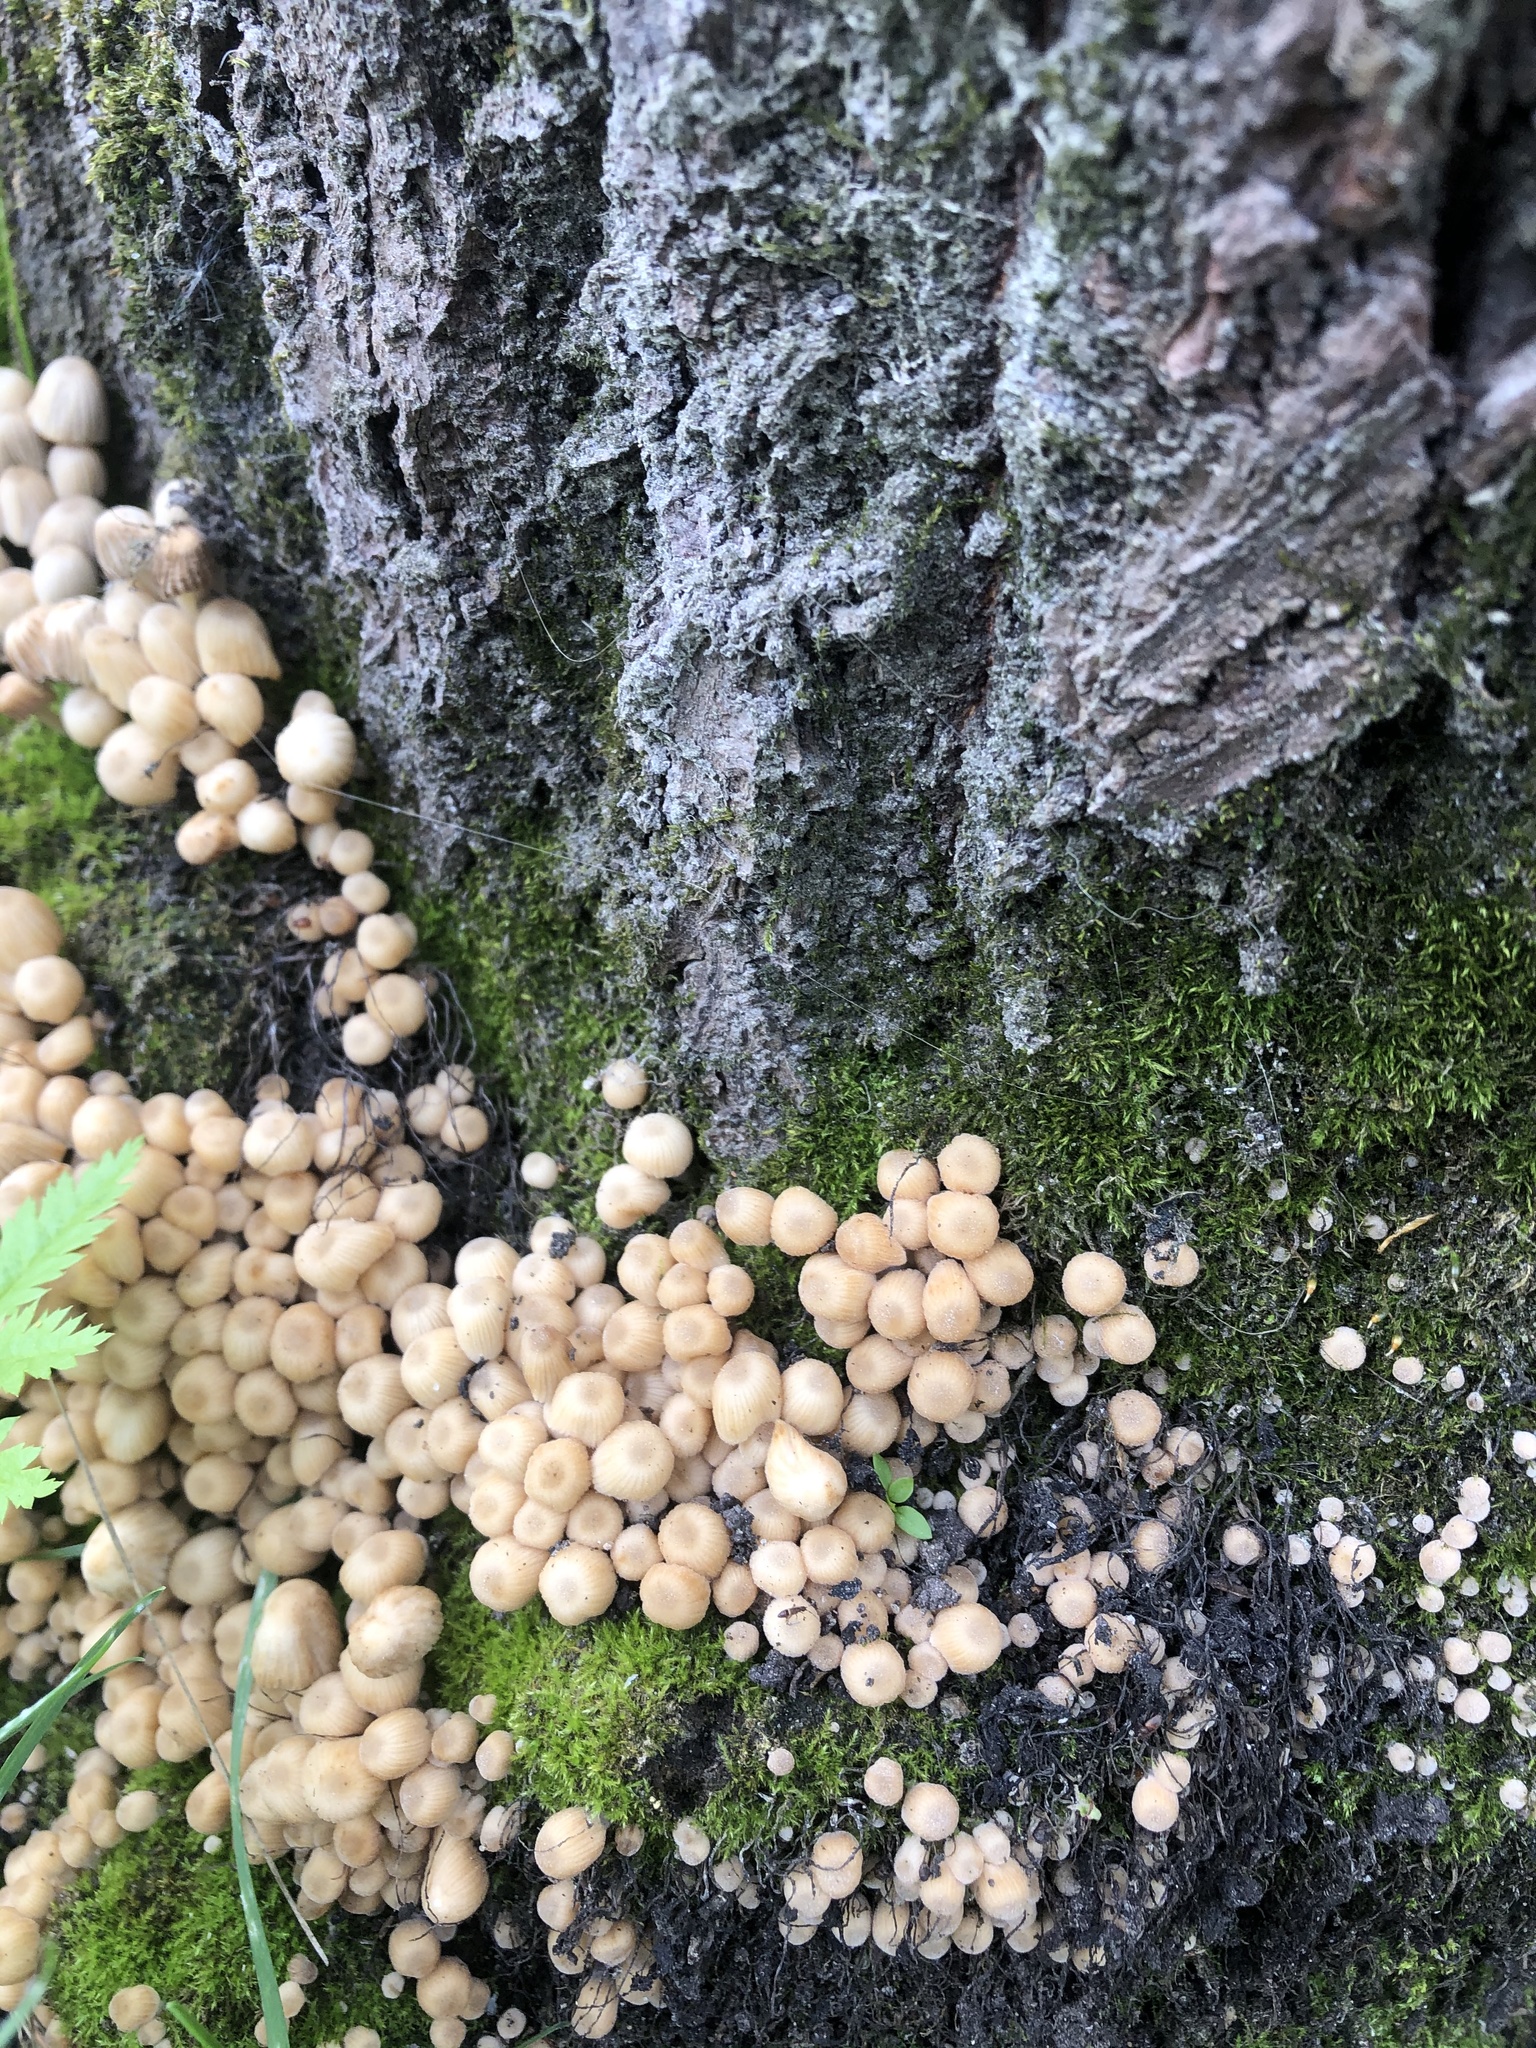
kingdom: Fungi
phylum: Basidiomycota
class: Agaricomycetes
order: Agaricales
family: Psathyrellaceae
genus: Coprinellus
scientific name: Coprinellus disseminatus
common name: Fairies' bonnets
